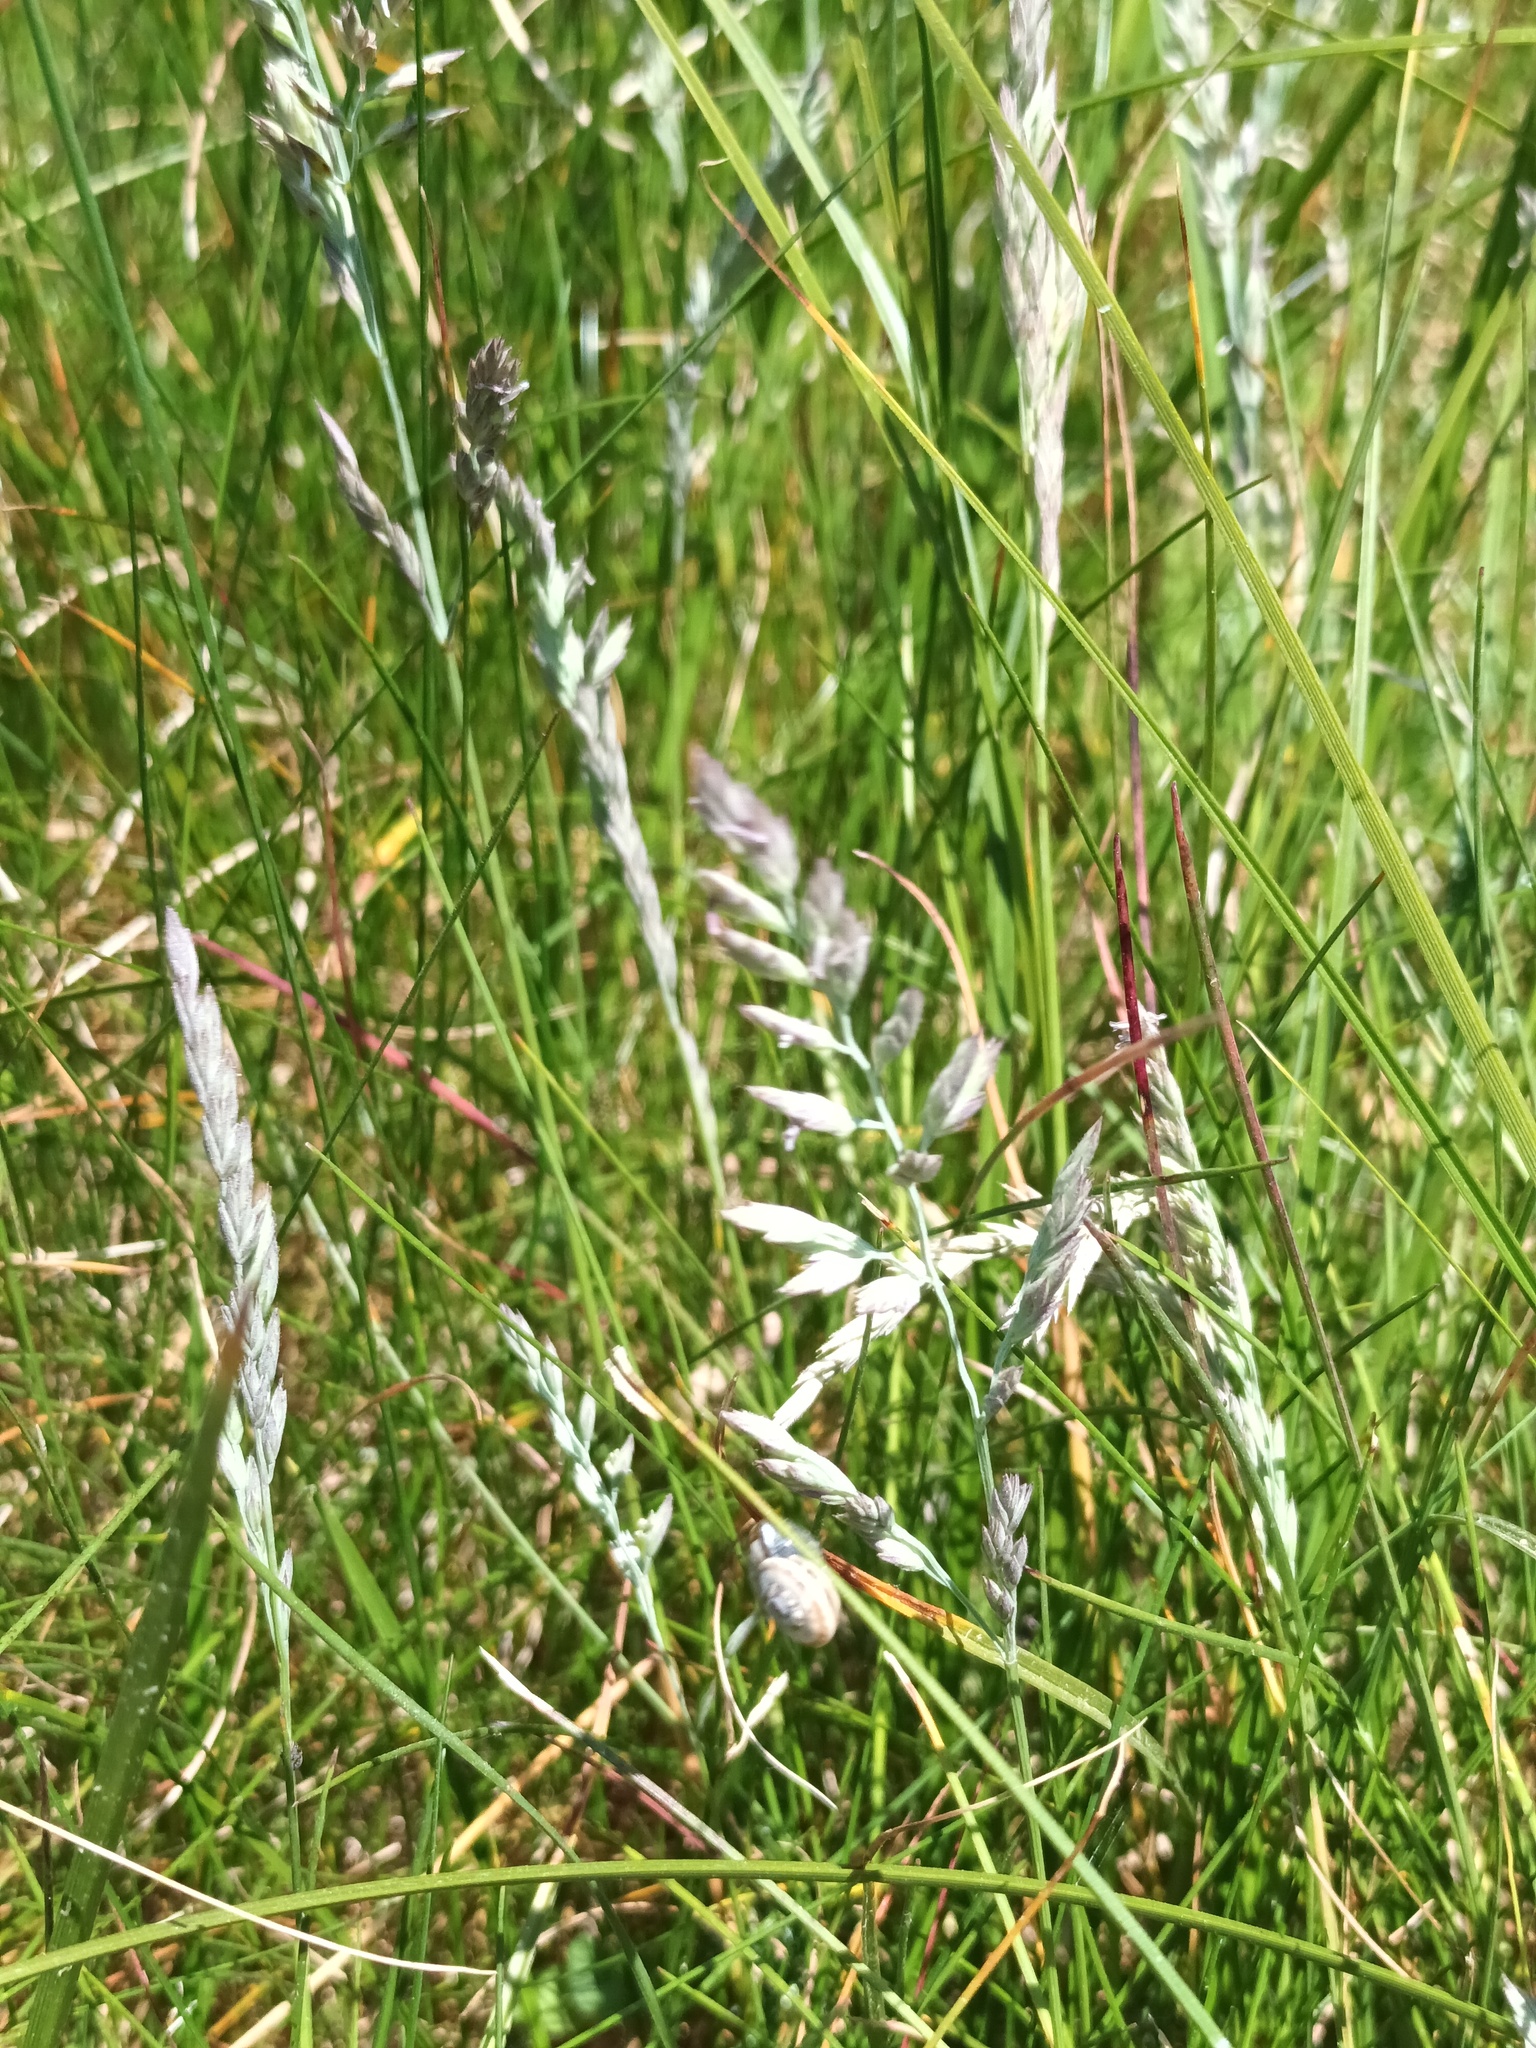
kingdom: Plantae
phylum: Tracheophyta
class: Liliopsida
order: Poales
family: Poaceae
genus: Holcus
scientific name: Holcus lanatus
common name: Yorkshire-fog
